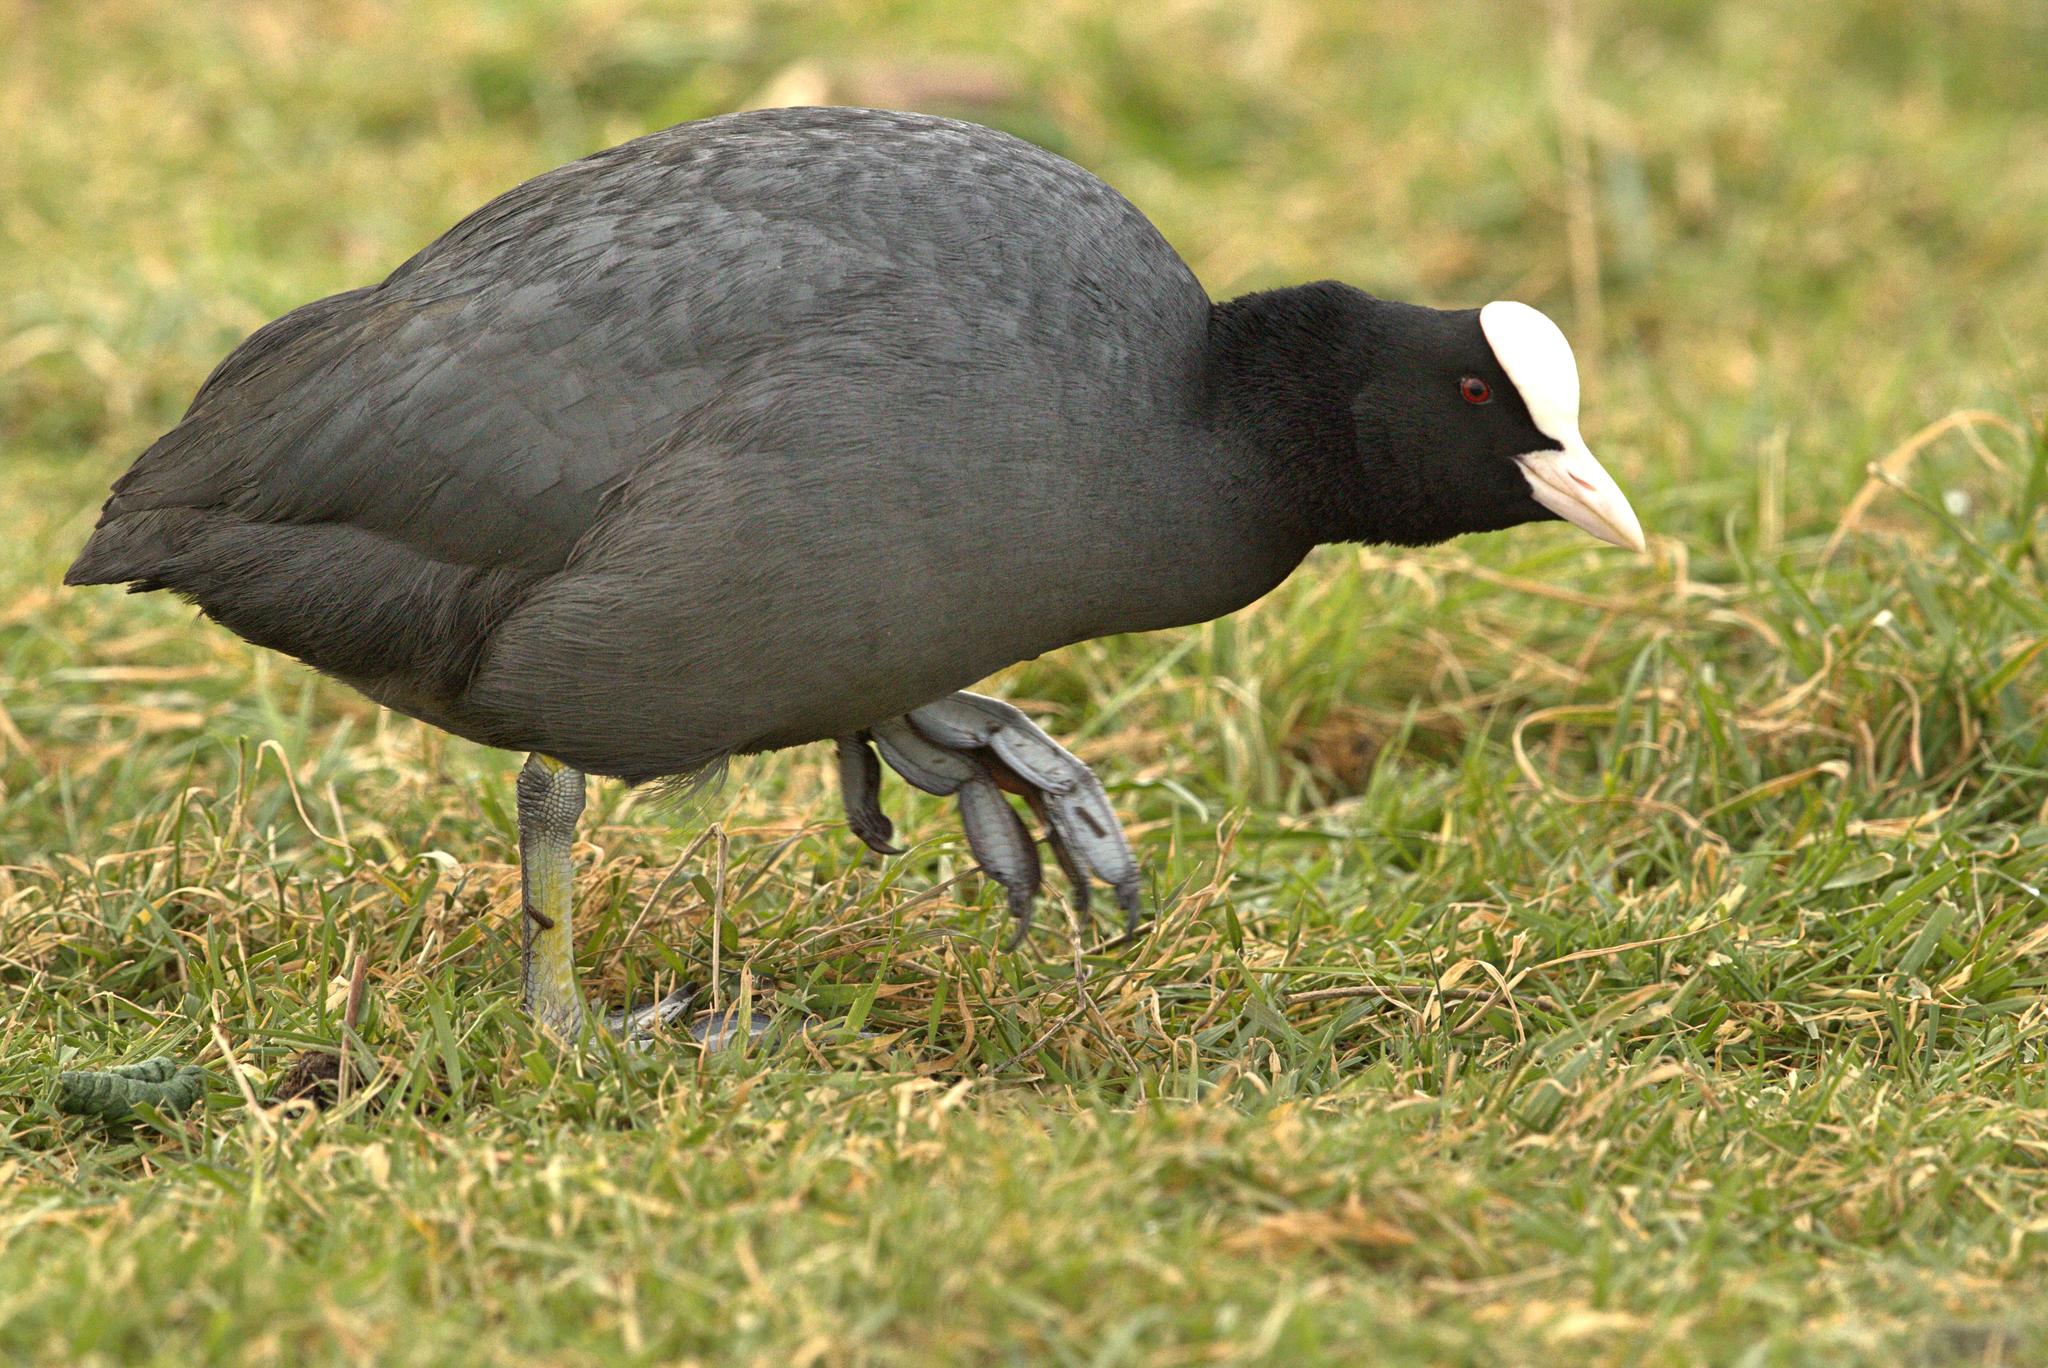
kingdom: Animalia
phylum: Chordata
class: Aves
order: Gruiformes
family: Rallidae
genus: Fulica
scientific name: Fulica atra
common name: Eurasian coot
